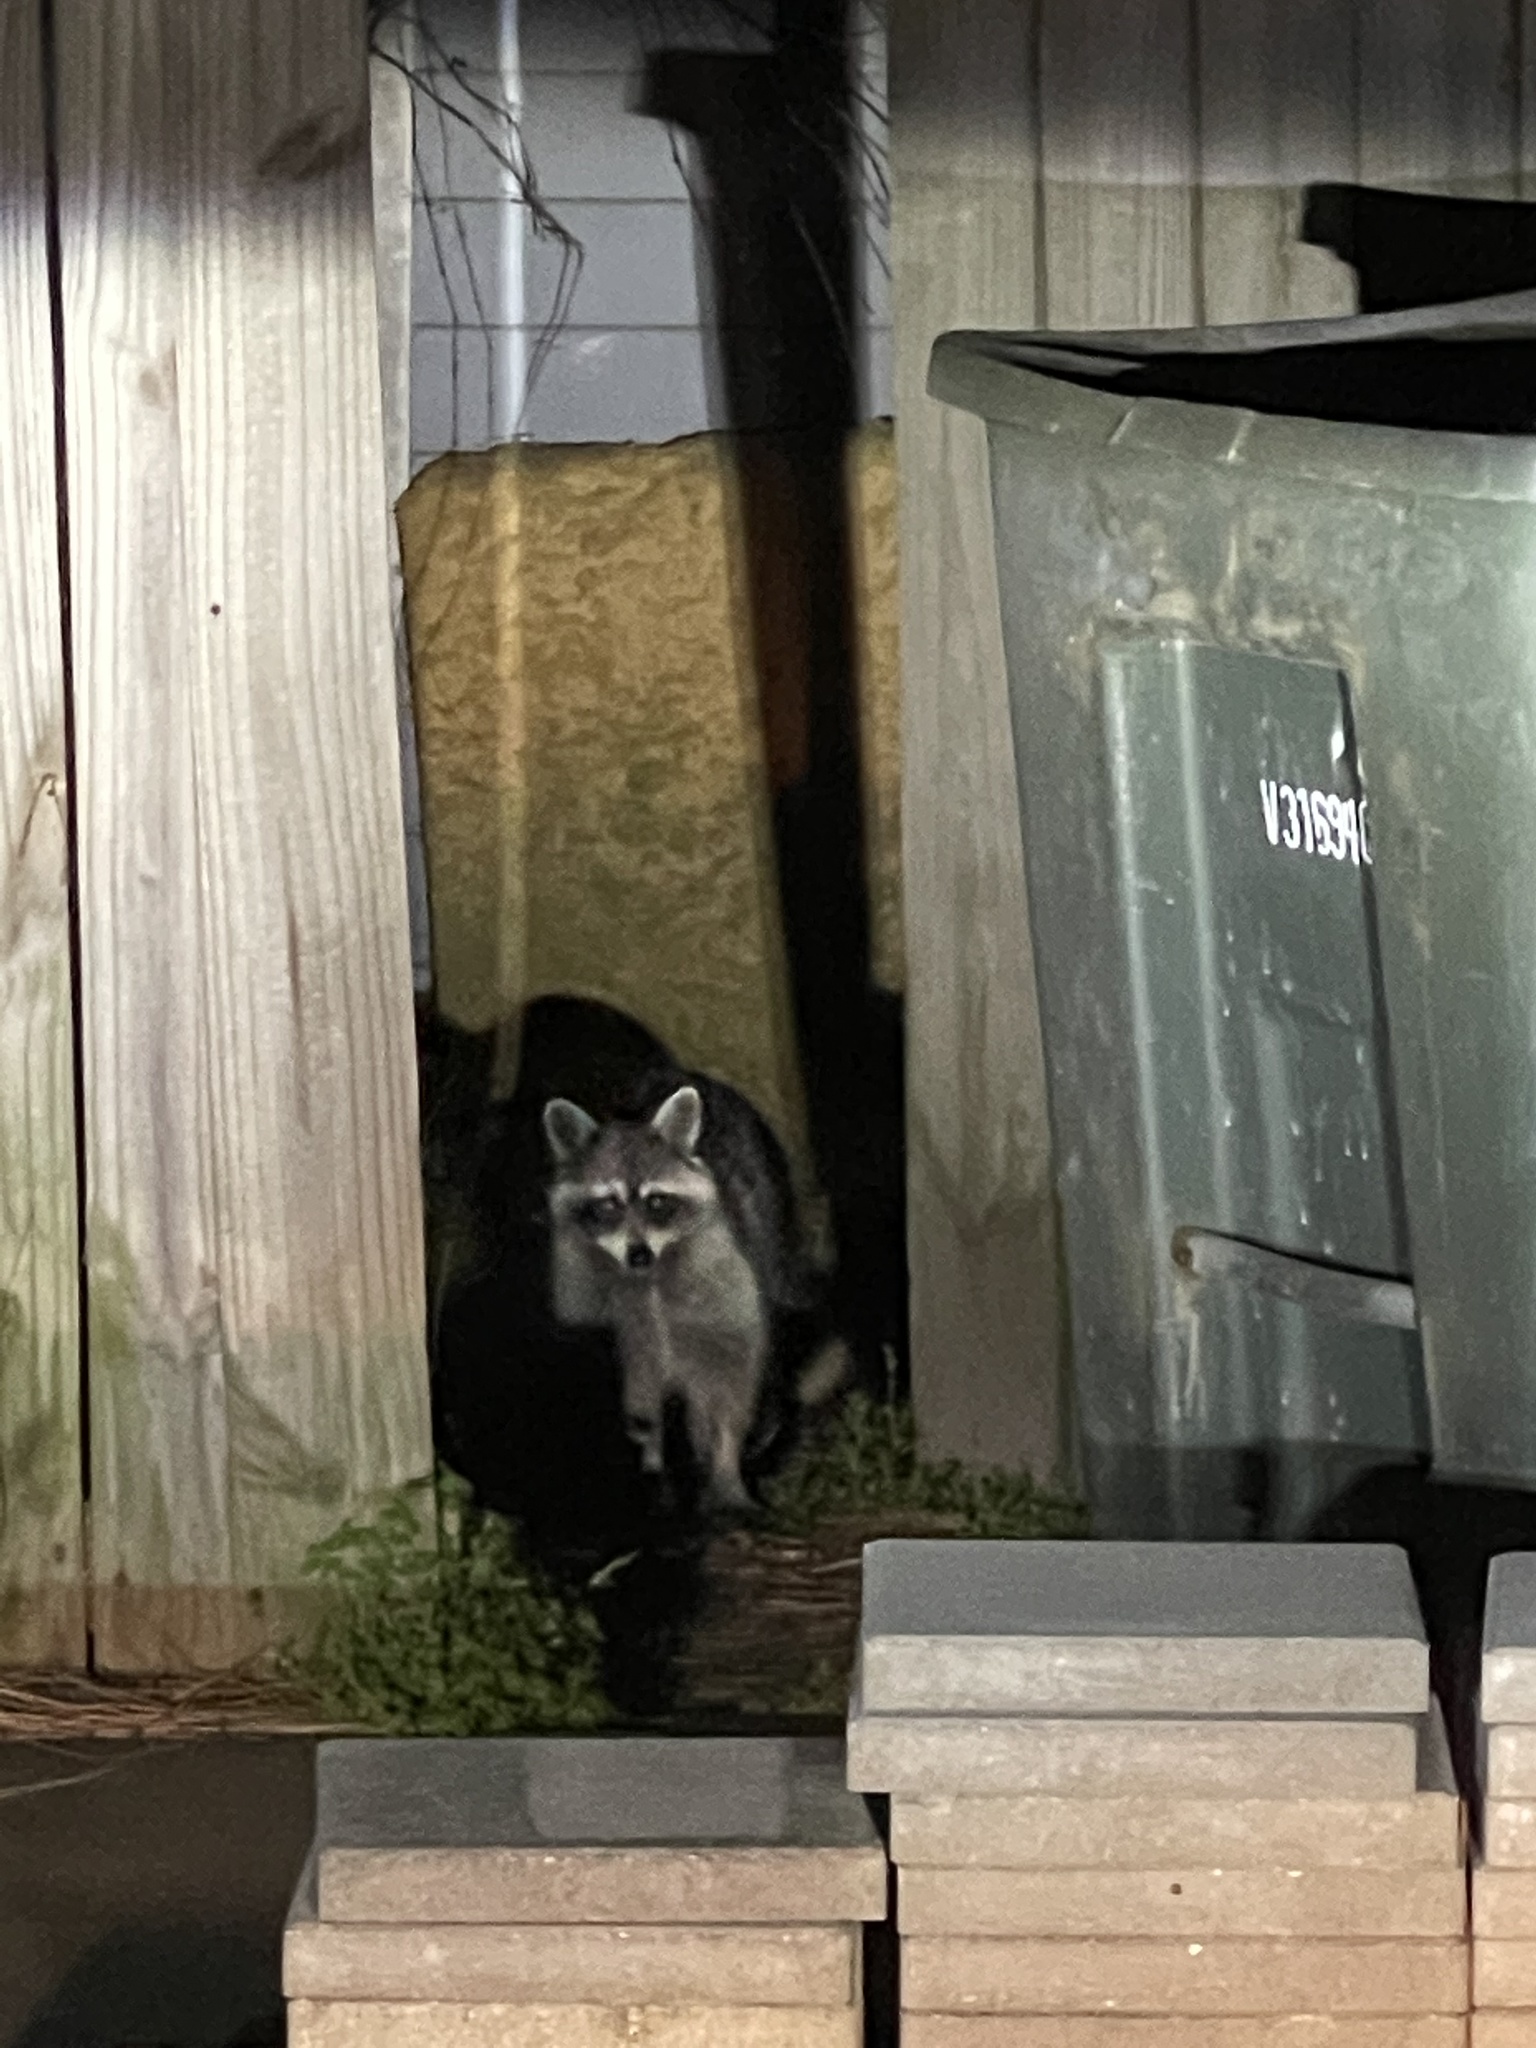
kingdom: Animalia
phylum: Chordata
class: Mammalia
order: Carnivora
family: Procyonidae
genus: Procyon
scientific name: Procyon lotor
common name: Raccoon
